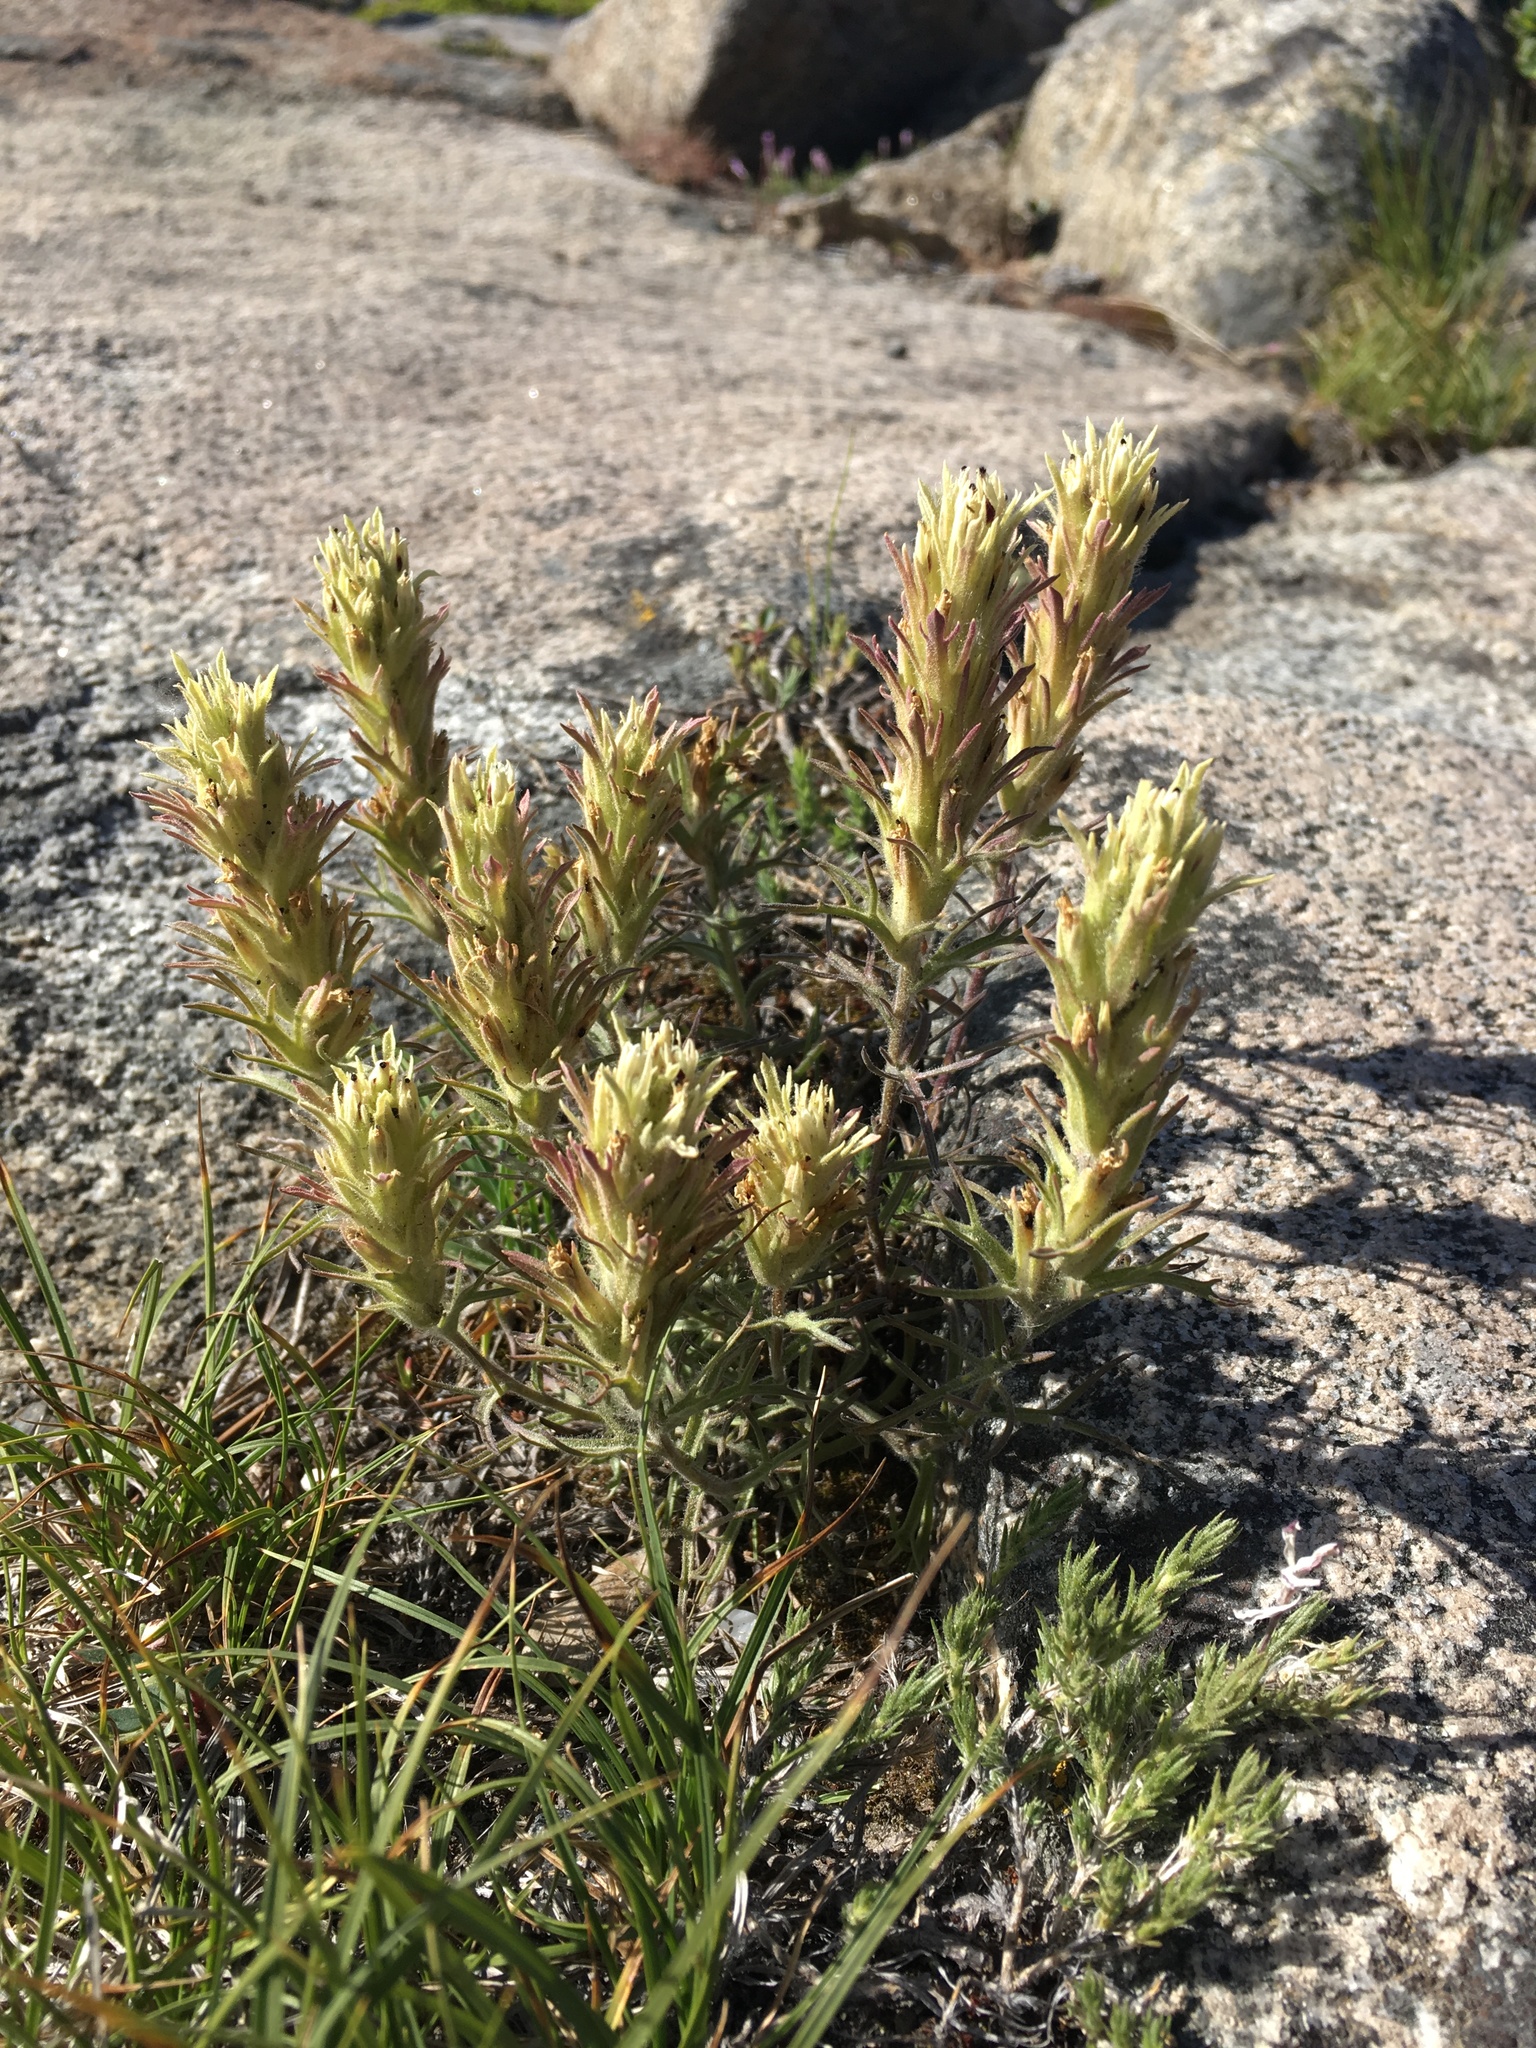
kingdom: Plantae
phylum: Tracheophyta
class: Magnoliopsida
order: Lamiales
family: Orobanchaceae
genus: Castilleja
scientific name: Castilleja nana
